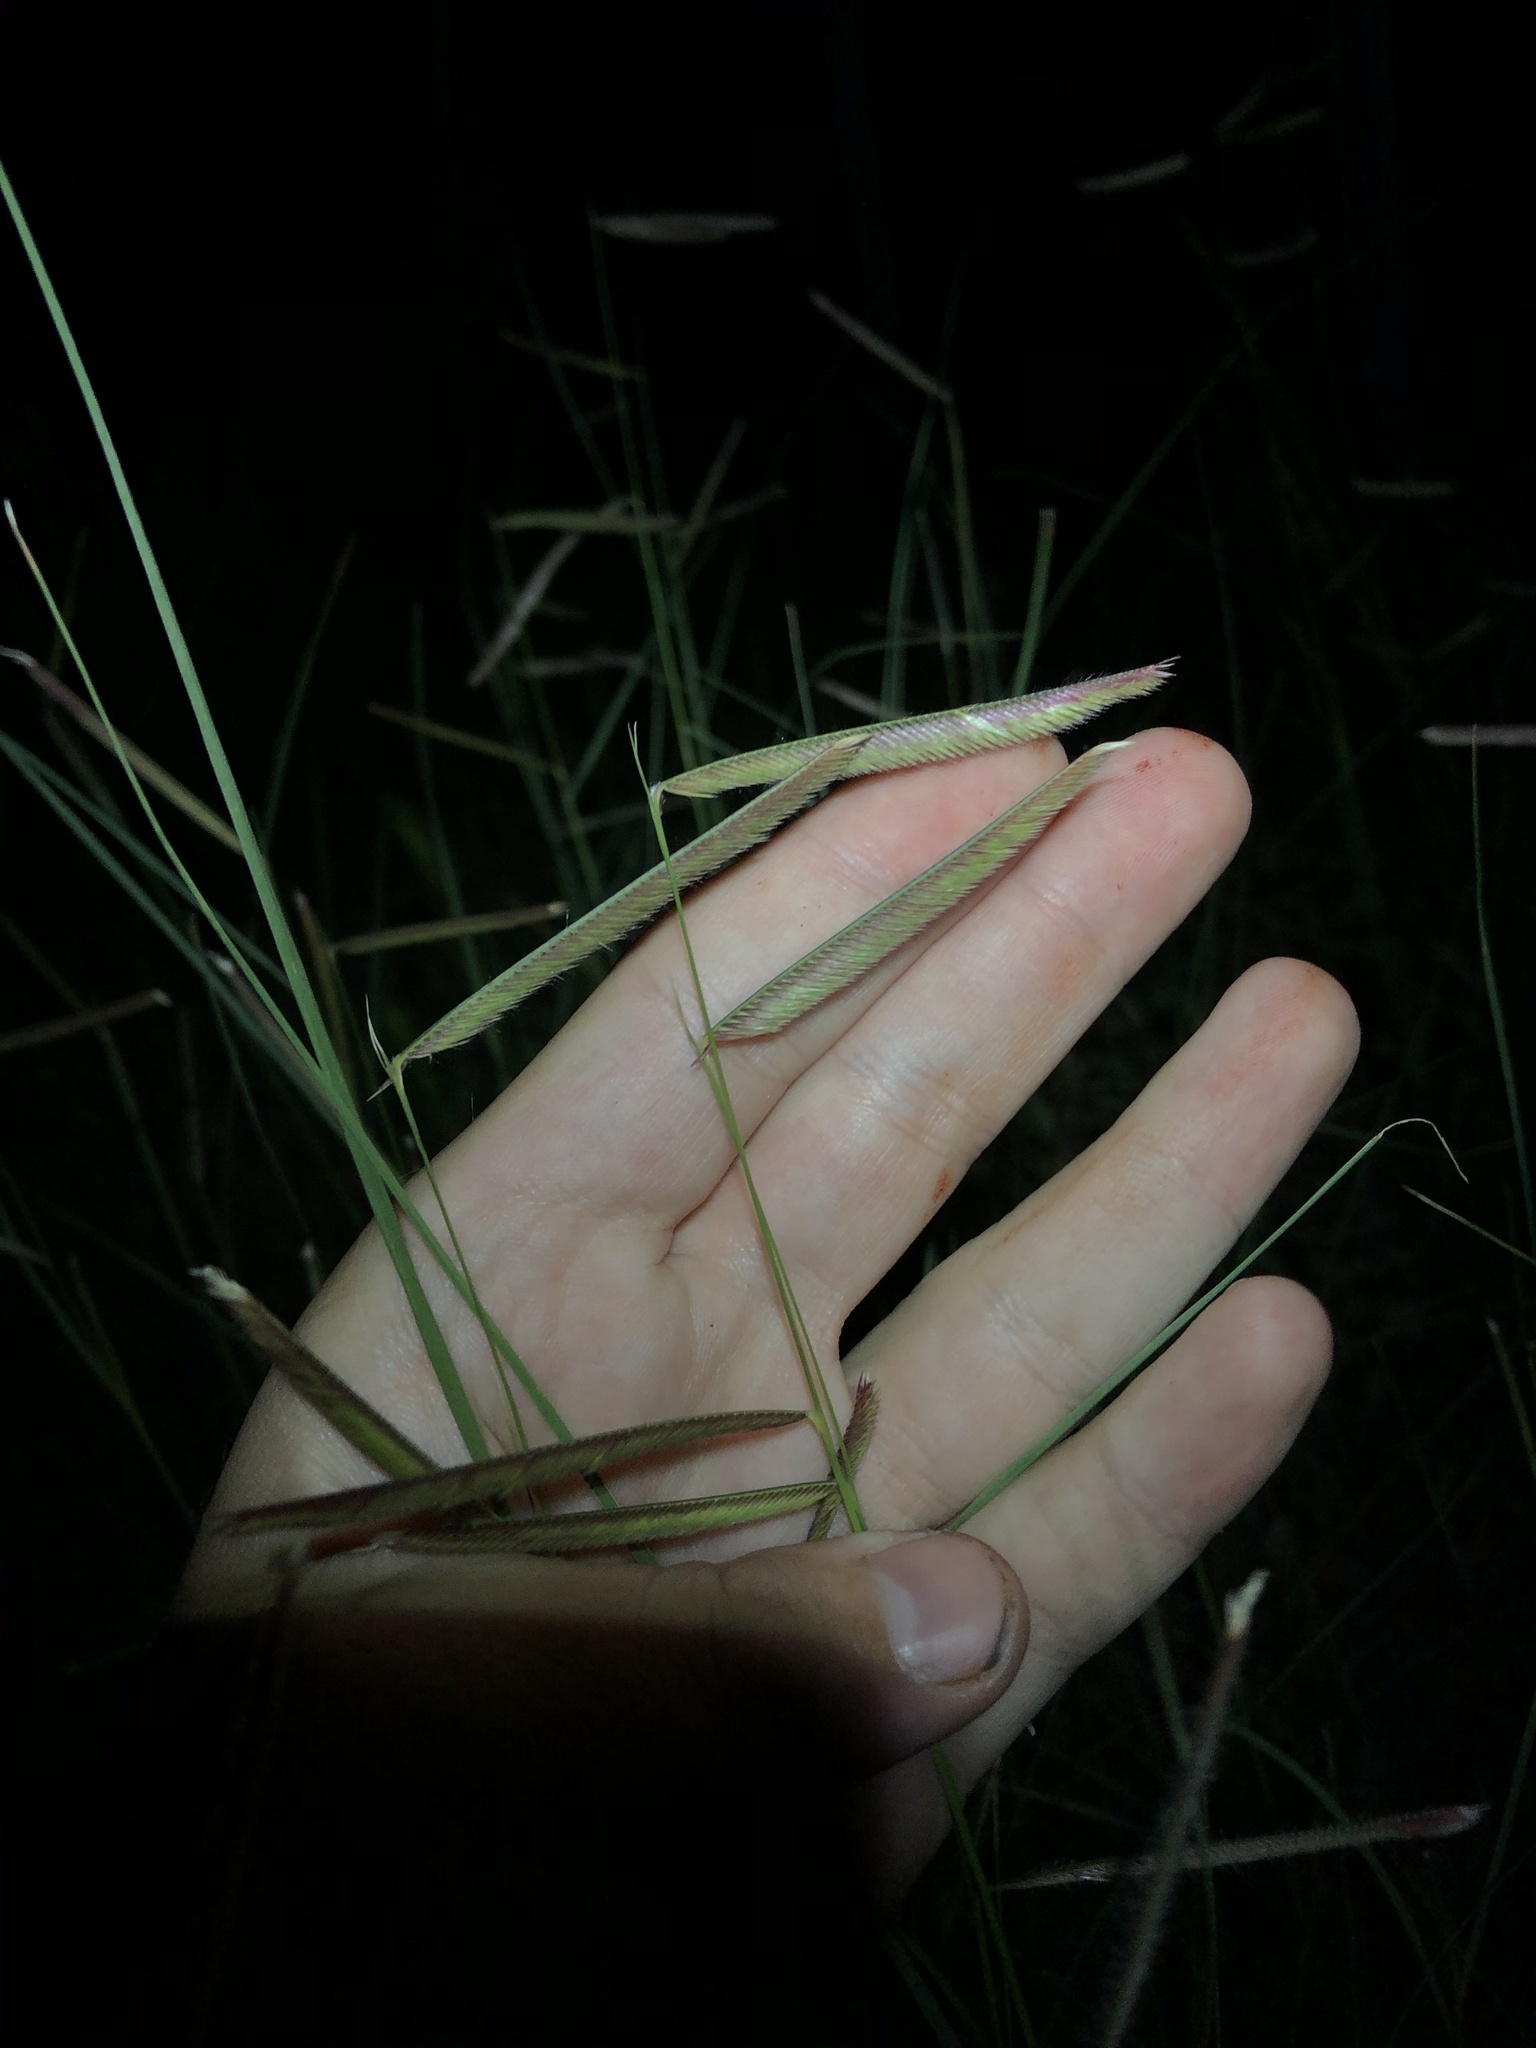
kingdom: Plantae
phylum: Tracheophyta
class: Liliopsida
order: Poales
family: Poaceae
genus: Bouteloua
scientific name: Bouteloua gracilis
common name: Blue grama
